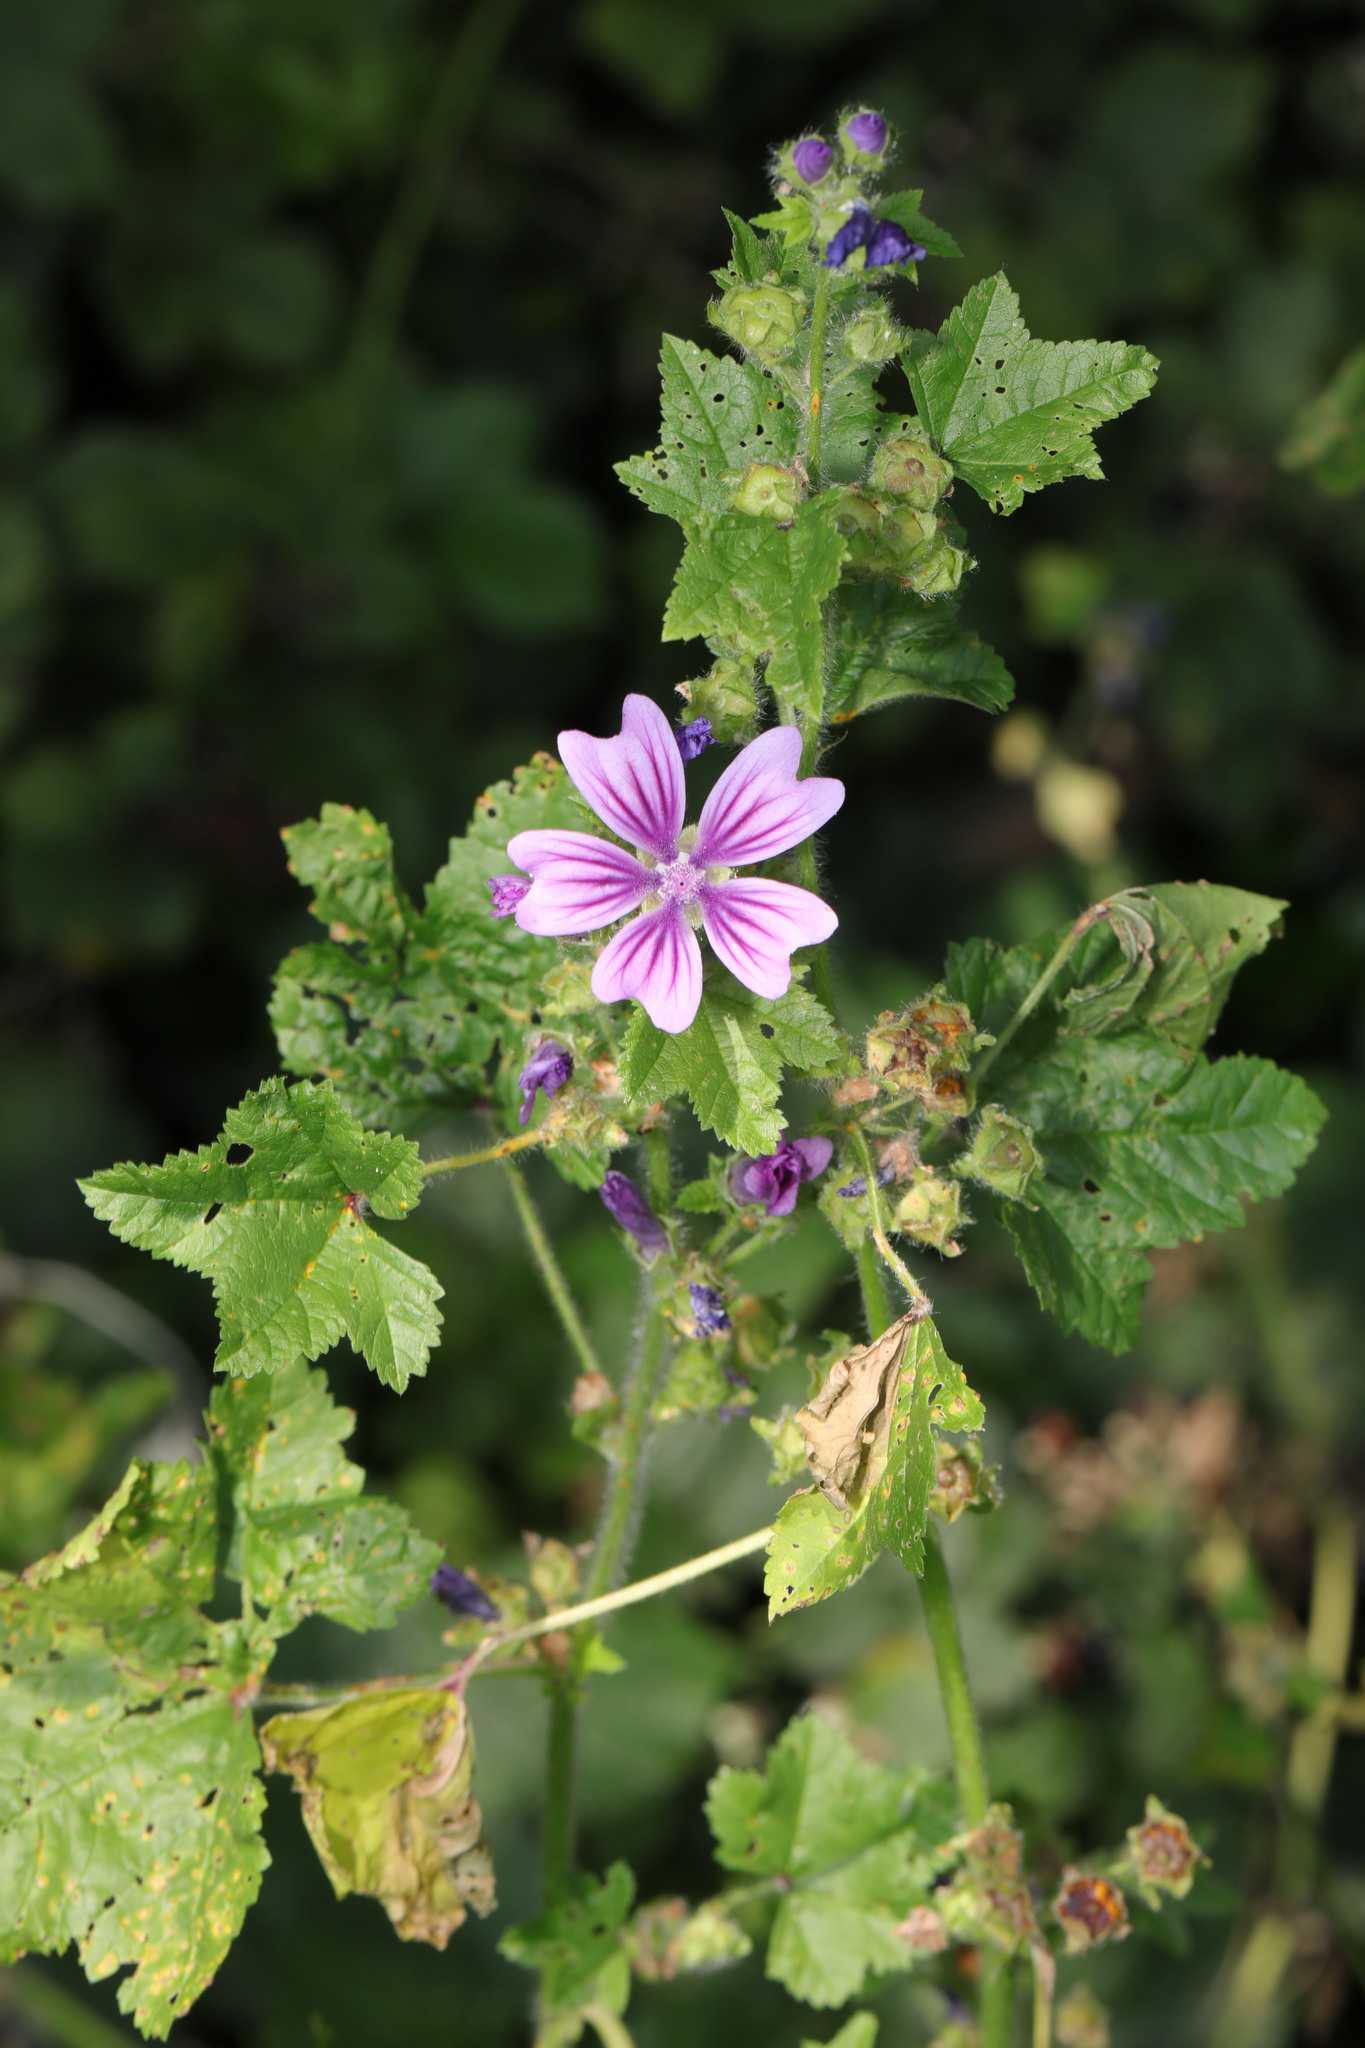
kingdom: Plantae
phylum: Tracheophyta
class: Magnoliopsida
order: Malvales
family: Malvaceae
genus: Malva
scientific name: Malva sylvestris
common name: Common mallow
